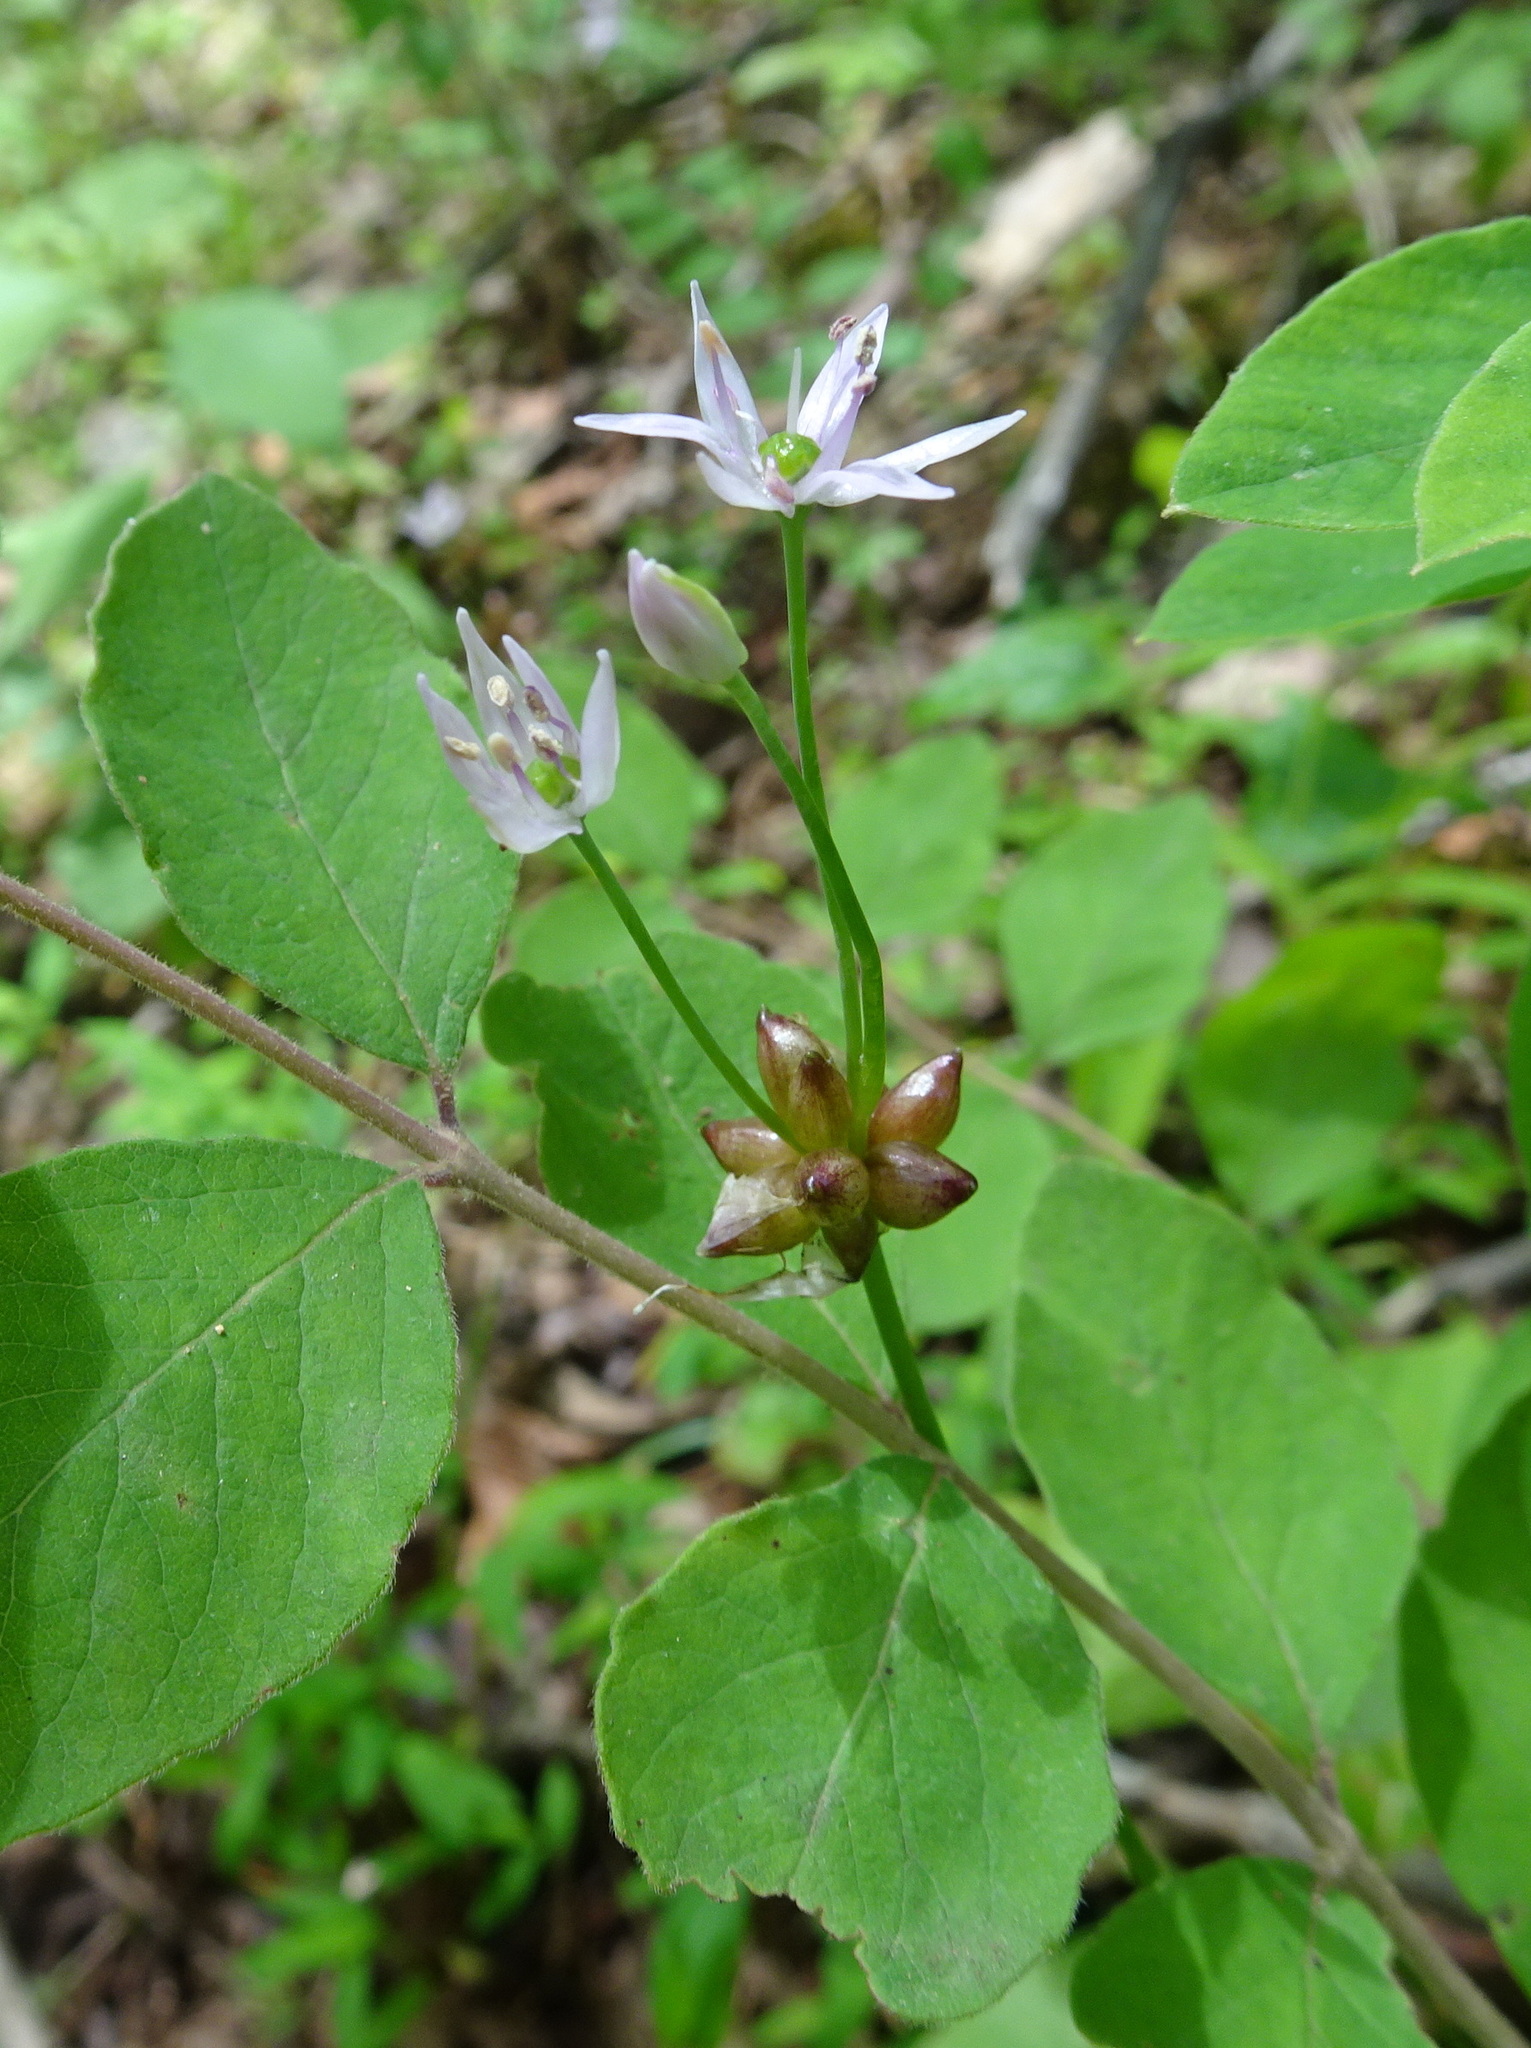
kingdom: Plantae
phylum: Tracheophyta
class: Liliopsida
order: Asparagales
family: Amaryllidaceae
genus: Allium
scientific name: Allium canadense
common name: Meadow garlic
